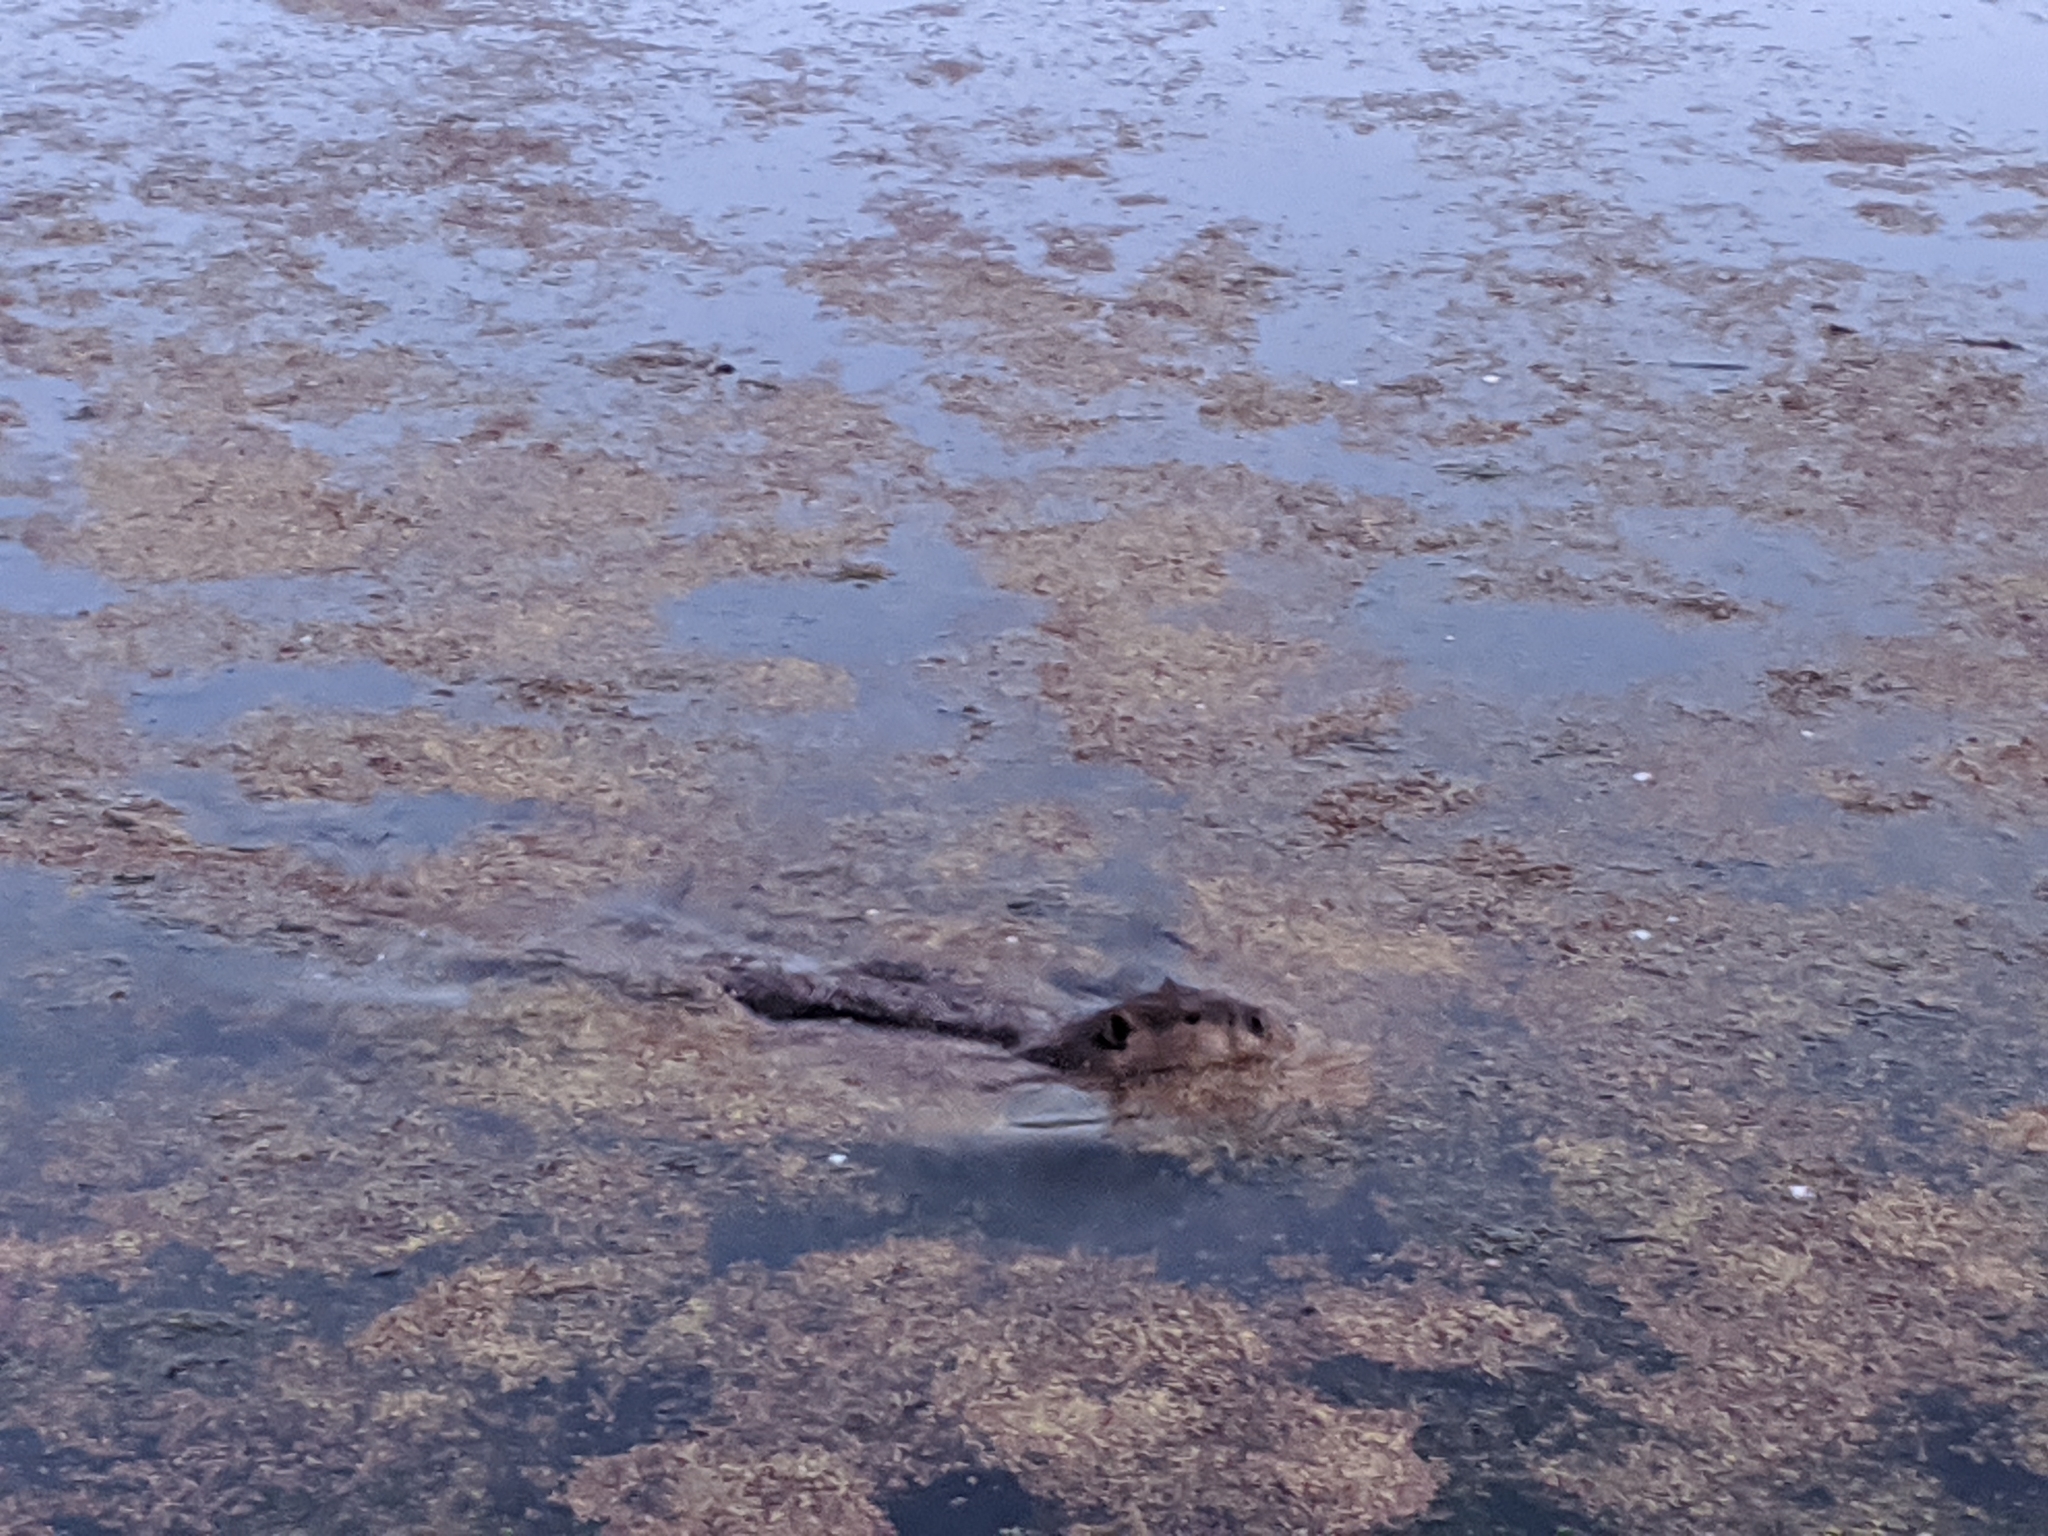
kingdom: Animalia
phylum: Chordata
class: Mammalia
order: Rodentia
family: Castoridae
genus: Castor
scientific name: Castor canadensis
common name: American beaver
